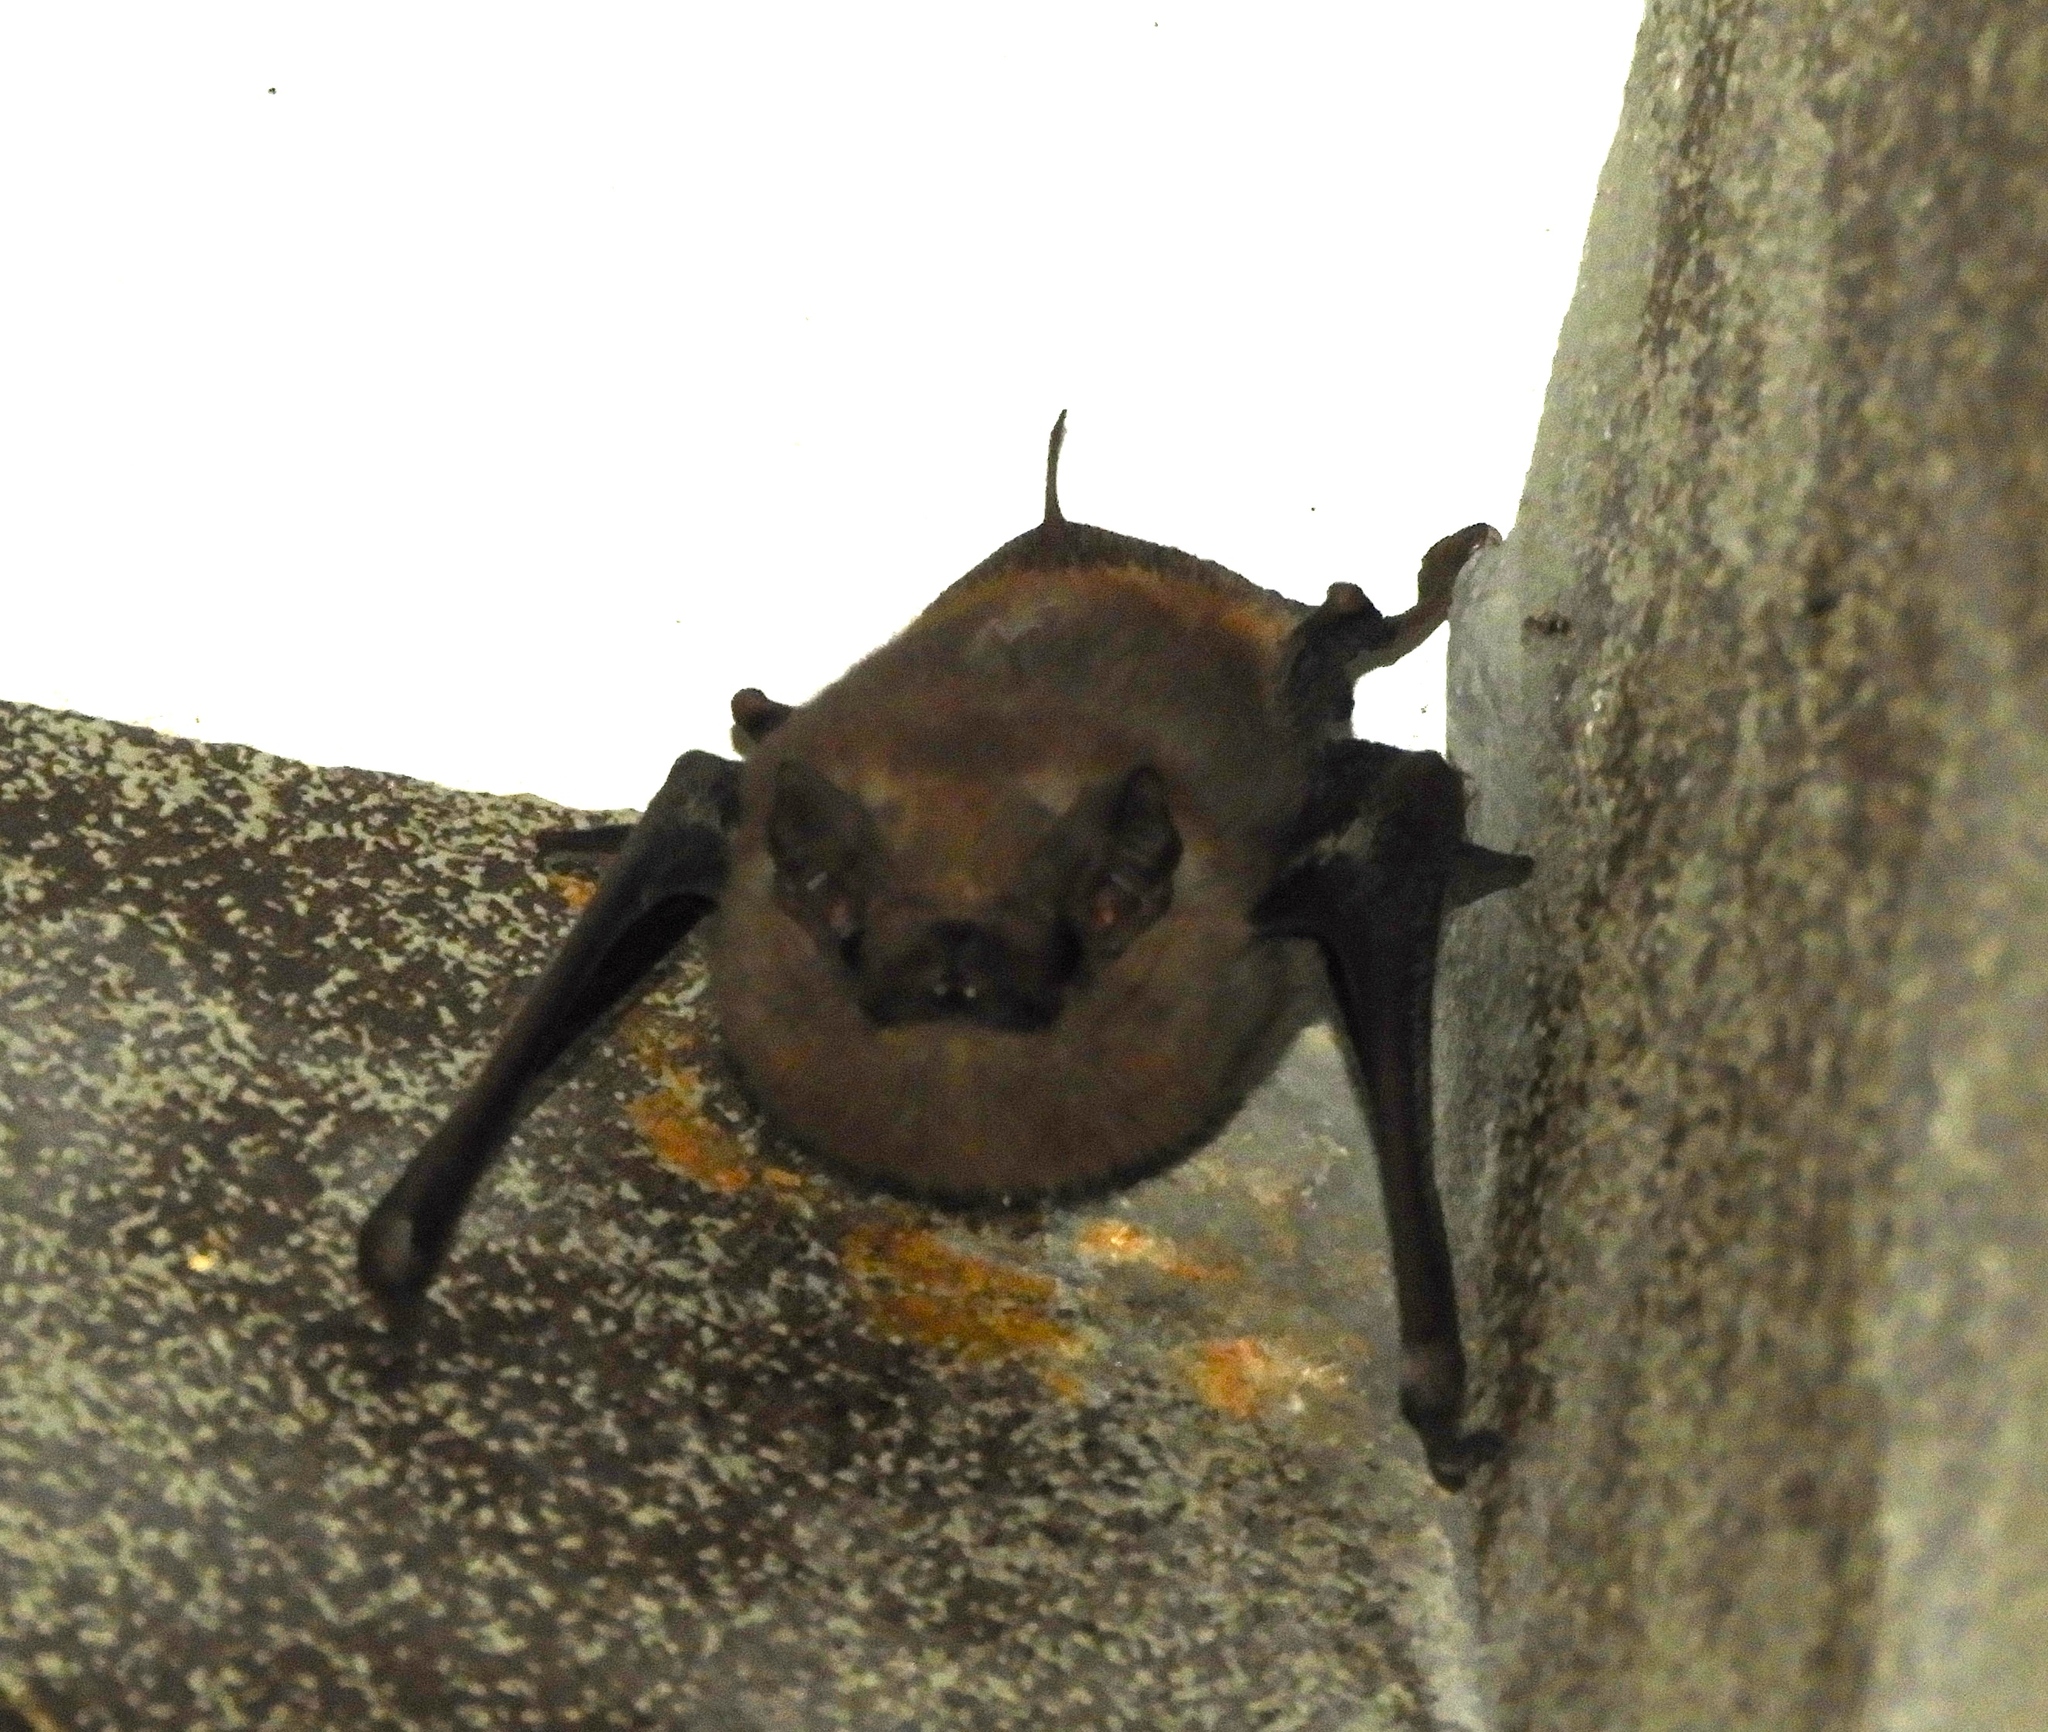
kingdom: Animalia
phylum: Chordata
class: Mammalia
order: Chiroptera
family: Emballonuridae
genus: Balantiopteryx
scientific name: Balantiopteryx plicata
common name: Gray sac-winged bat
